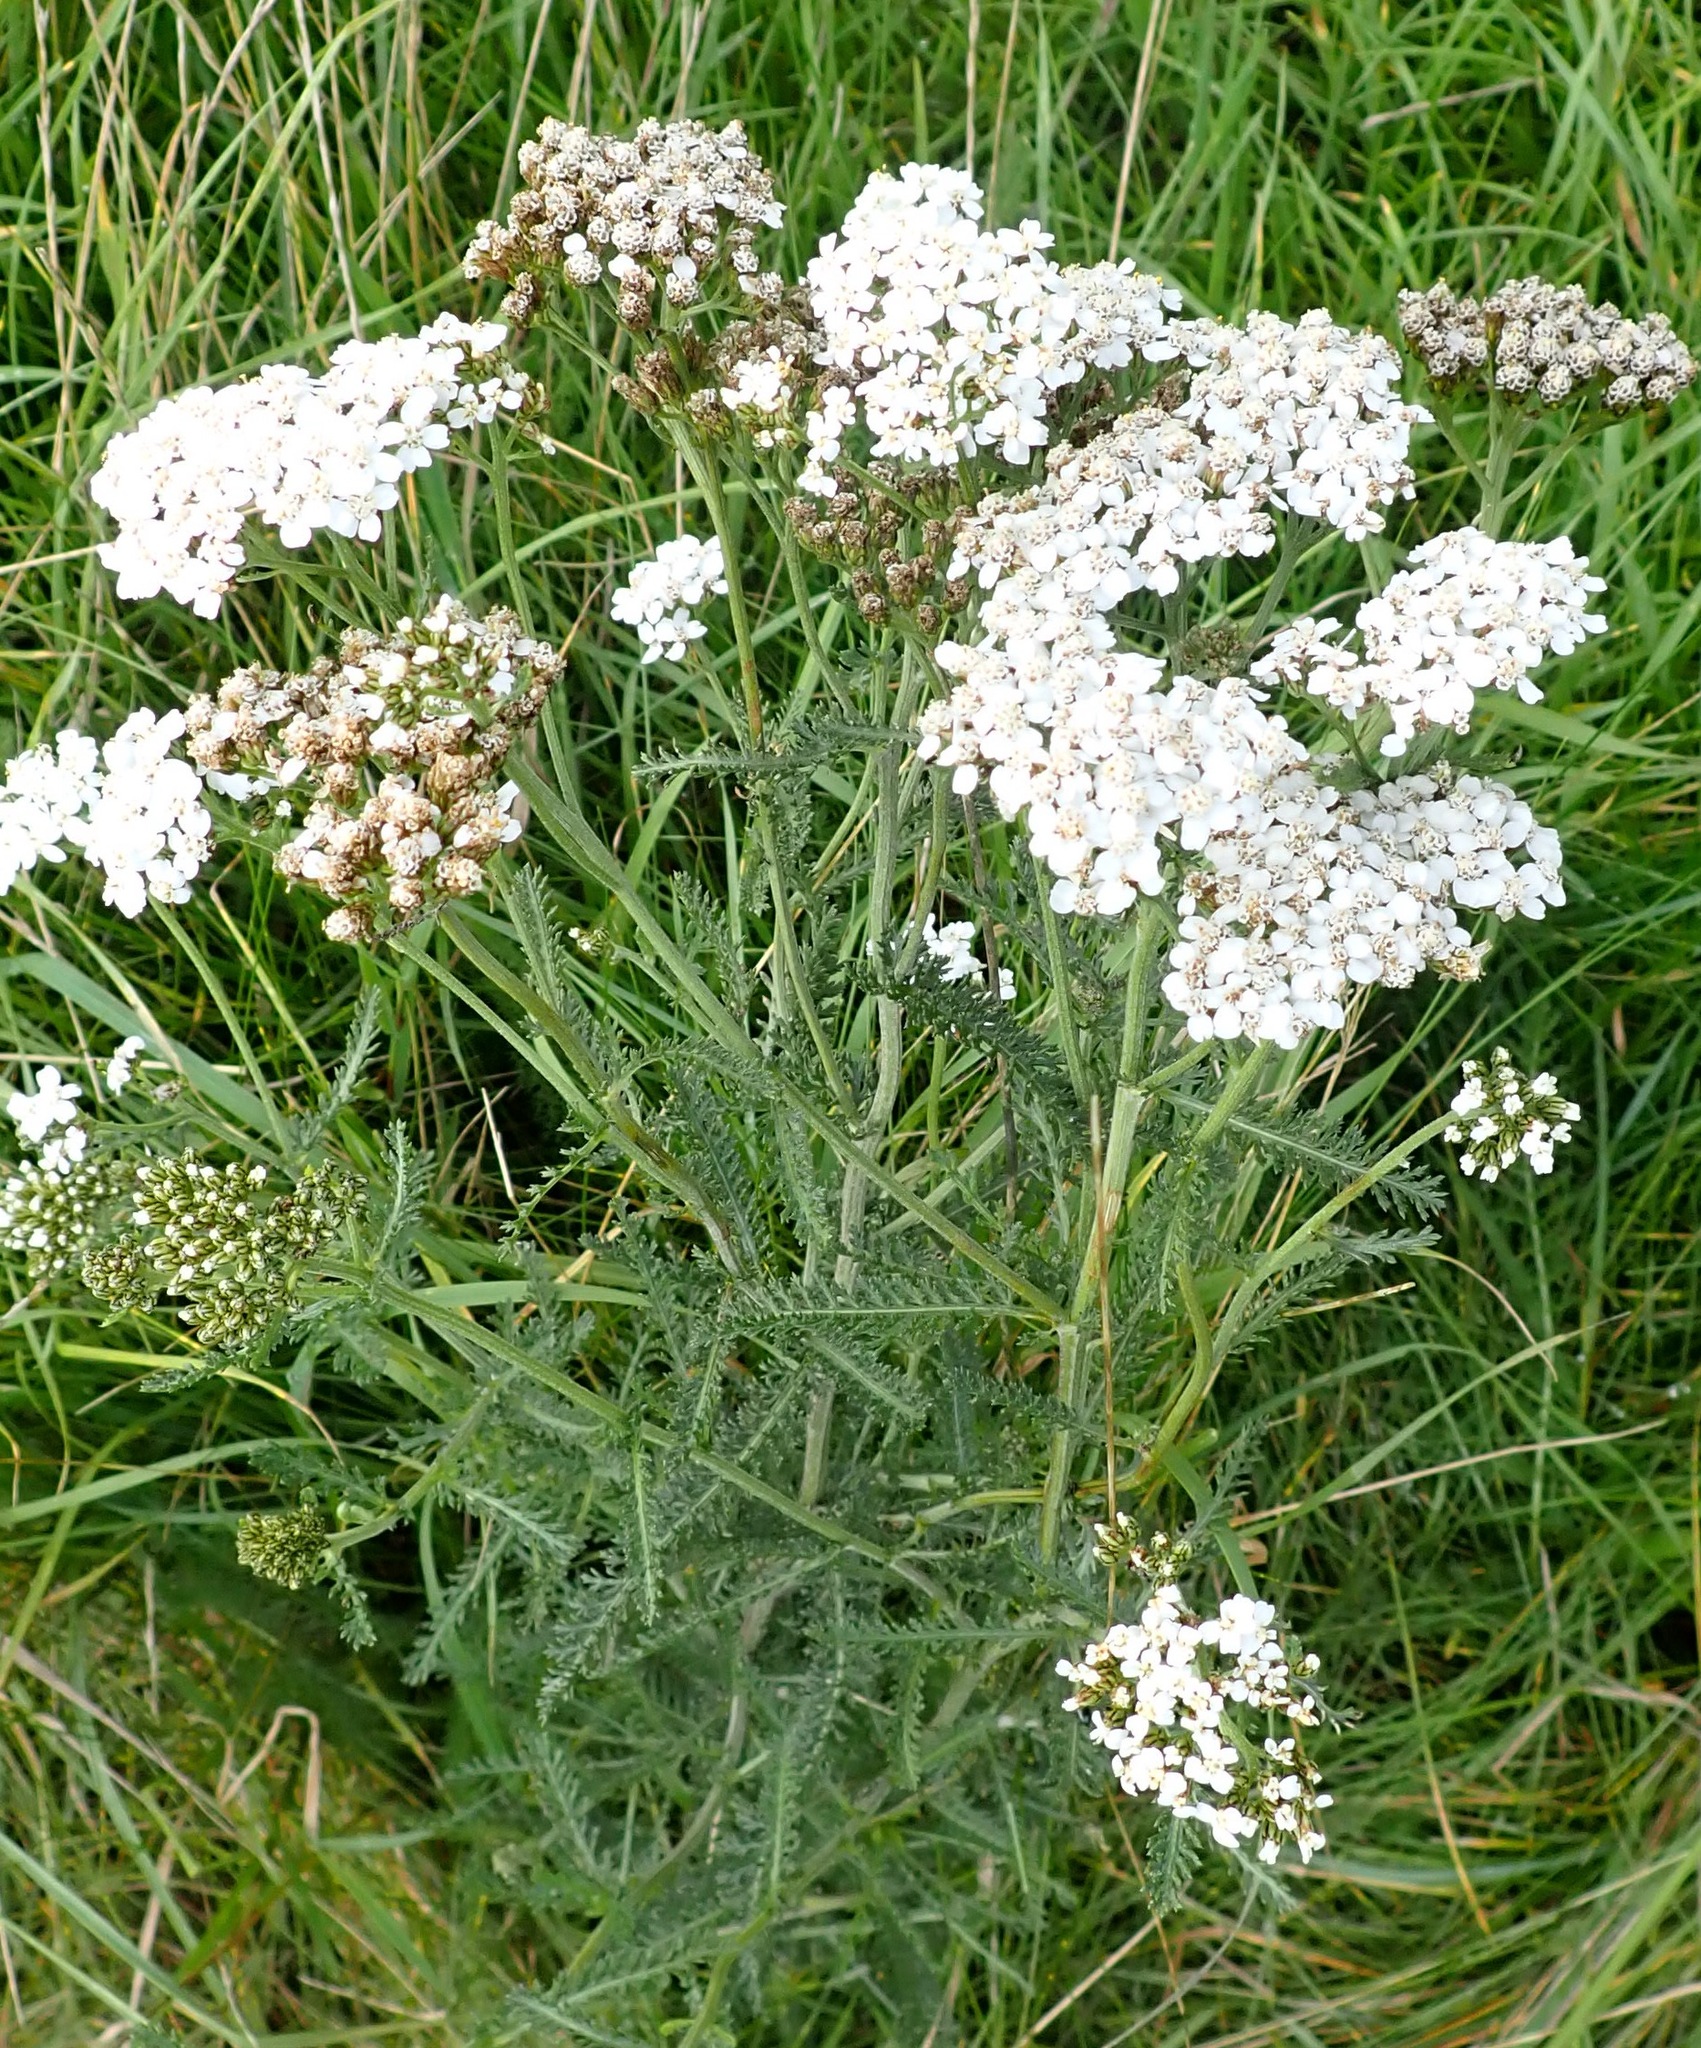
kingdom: Plantae
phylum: Tracheophyta
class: Magnoliopsida
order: Asterales
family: Asteraceae
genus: Achillea
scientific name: Achillea millefolium
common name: Yarrow
